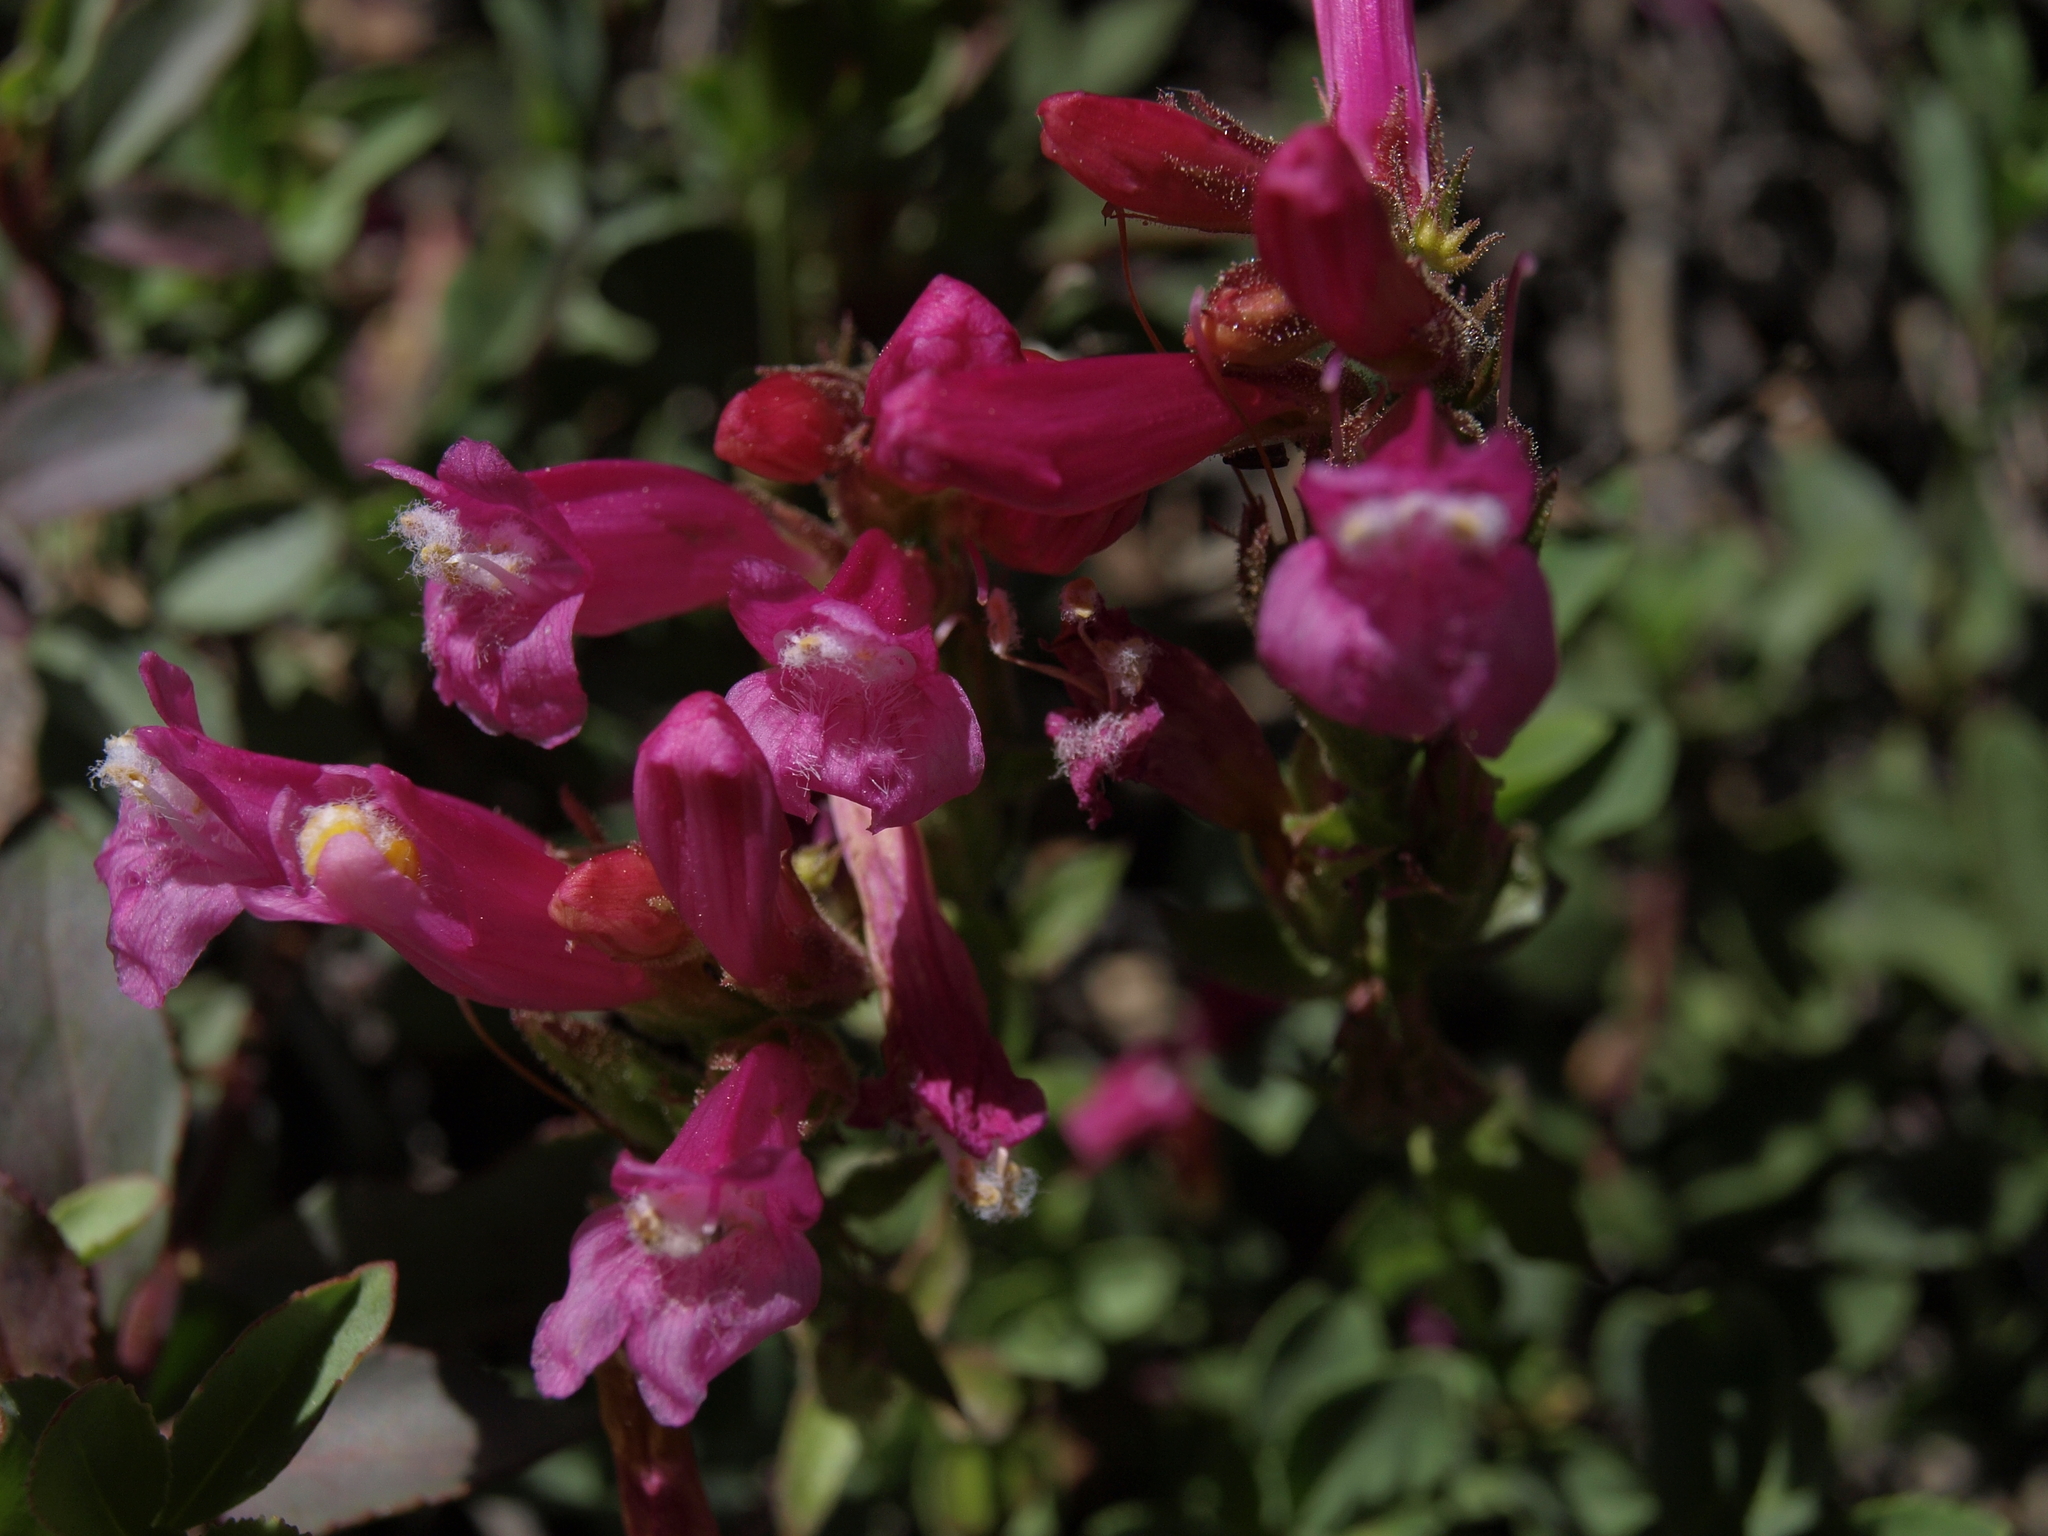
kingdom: Plantae
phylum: Tracheophyta
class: Magnoliopsida
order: Lamiales
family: Plantaginaceae
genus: Penstemon
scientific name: Penstemon newberryi
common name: Mountain-pride
